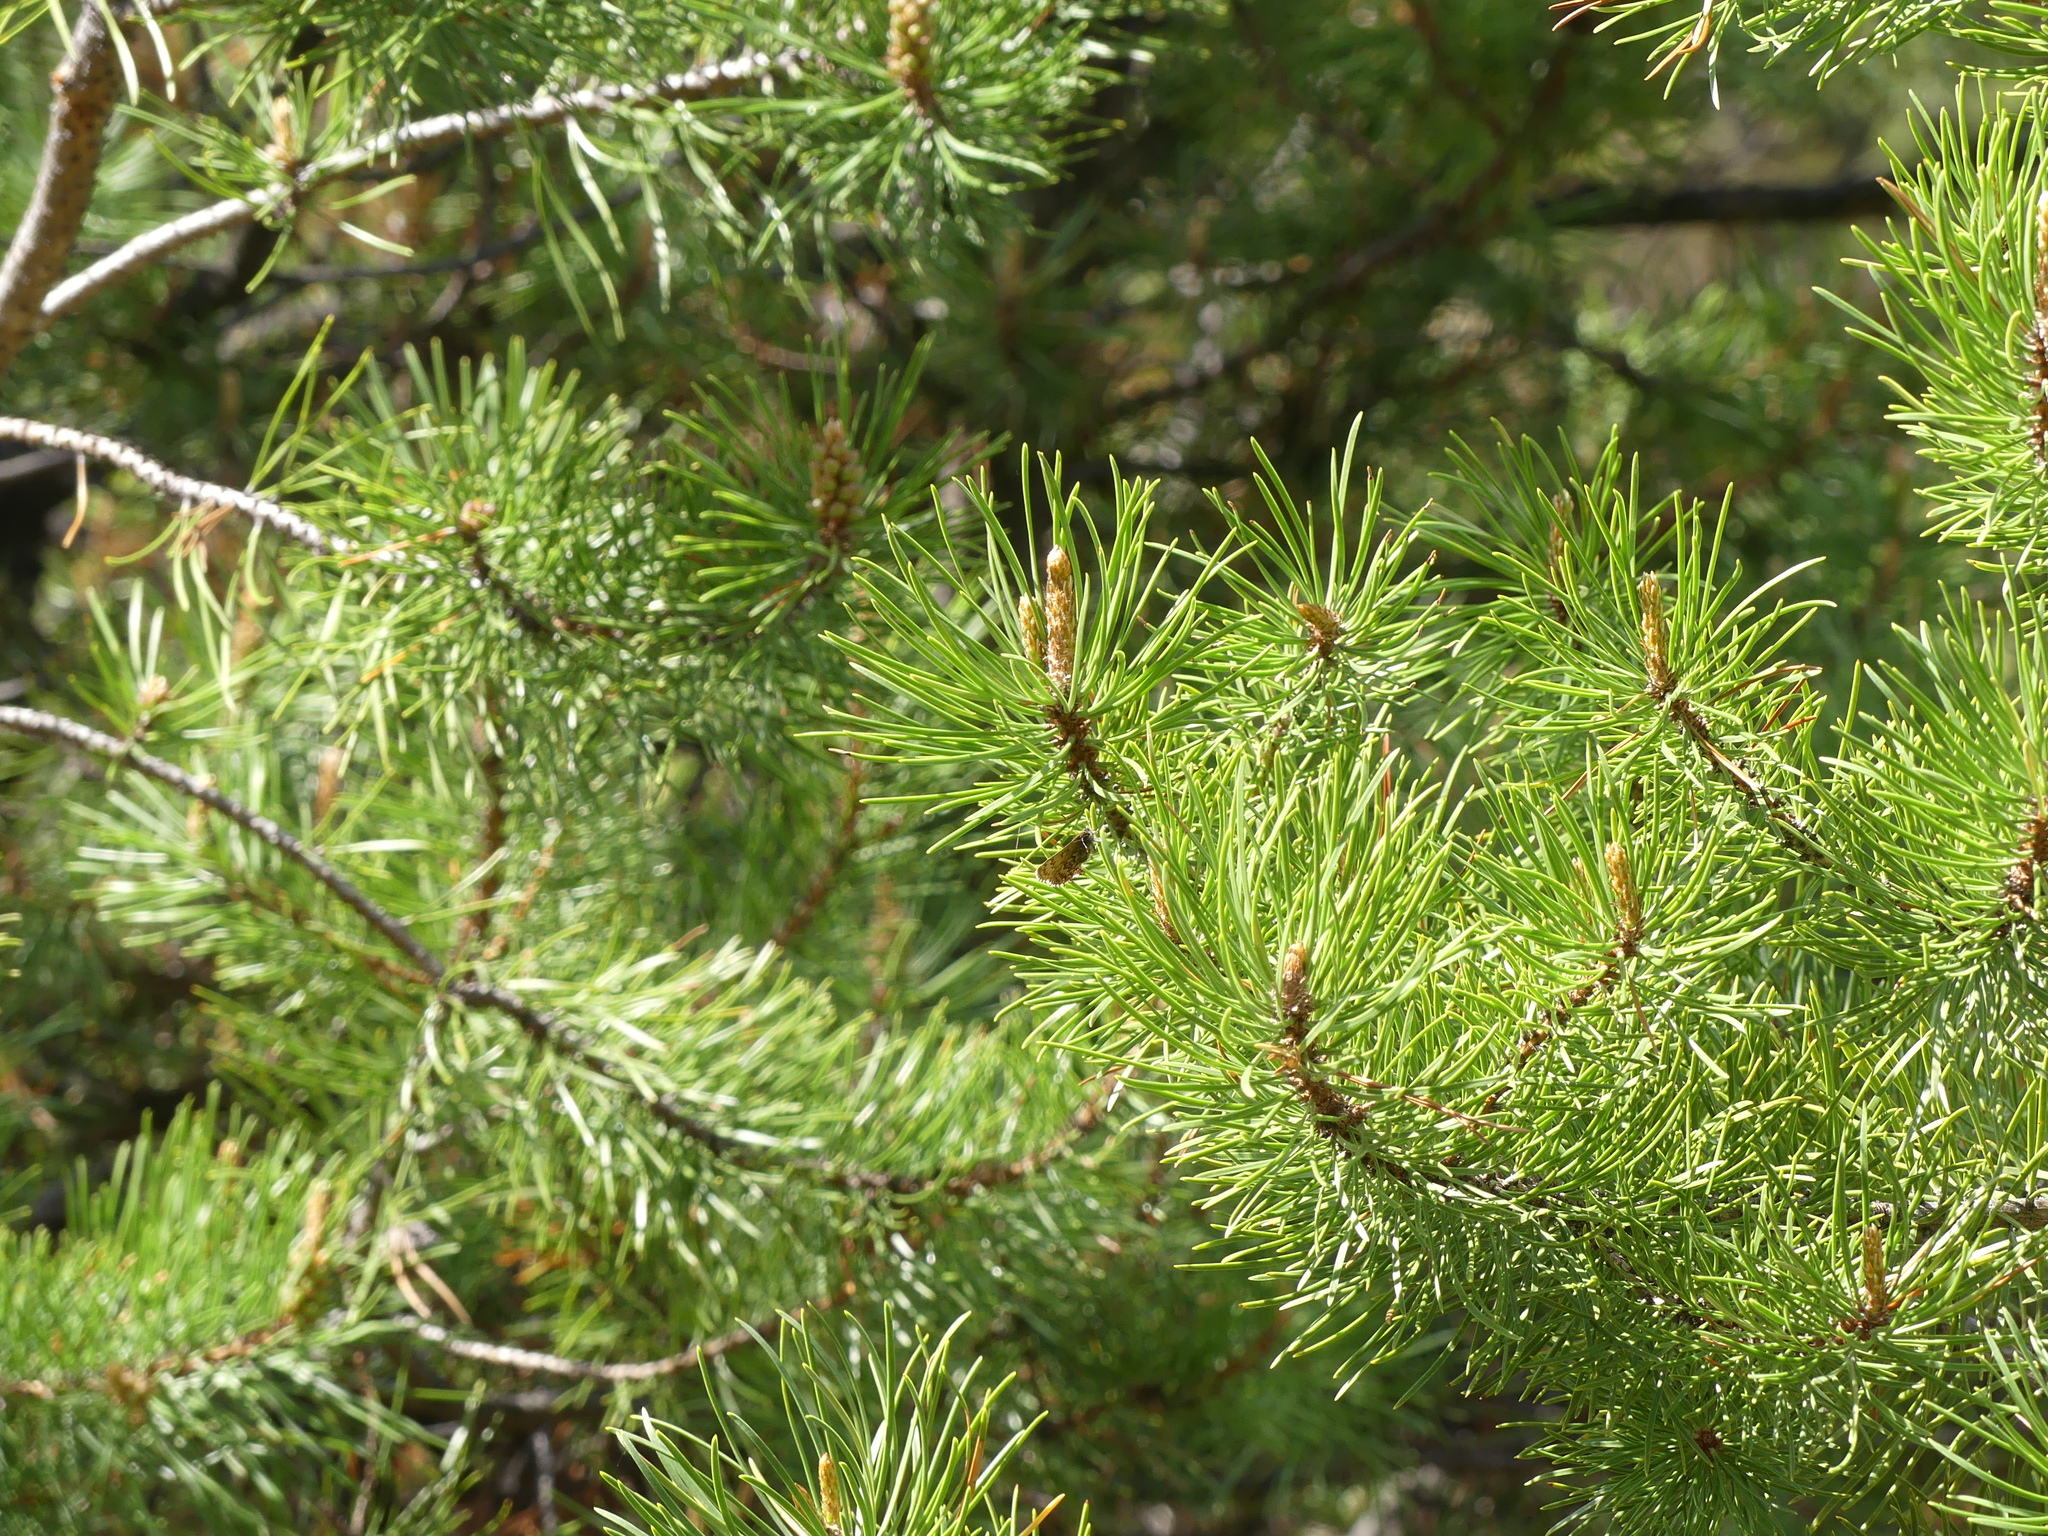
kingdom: Animalia
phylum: Arthropoda
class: Insecta
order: Lepidoptera
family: Lycaenidae
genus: Incisalia
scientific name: Incisalia eryphon
